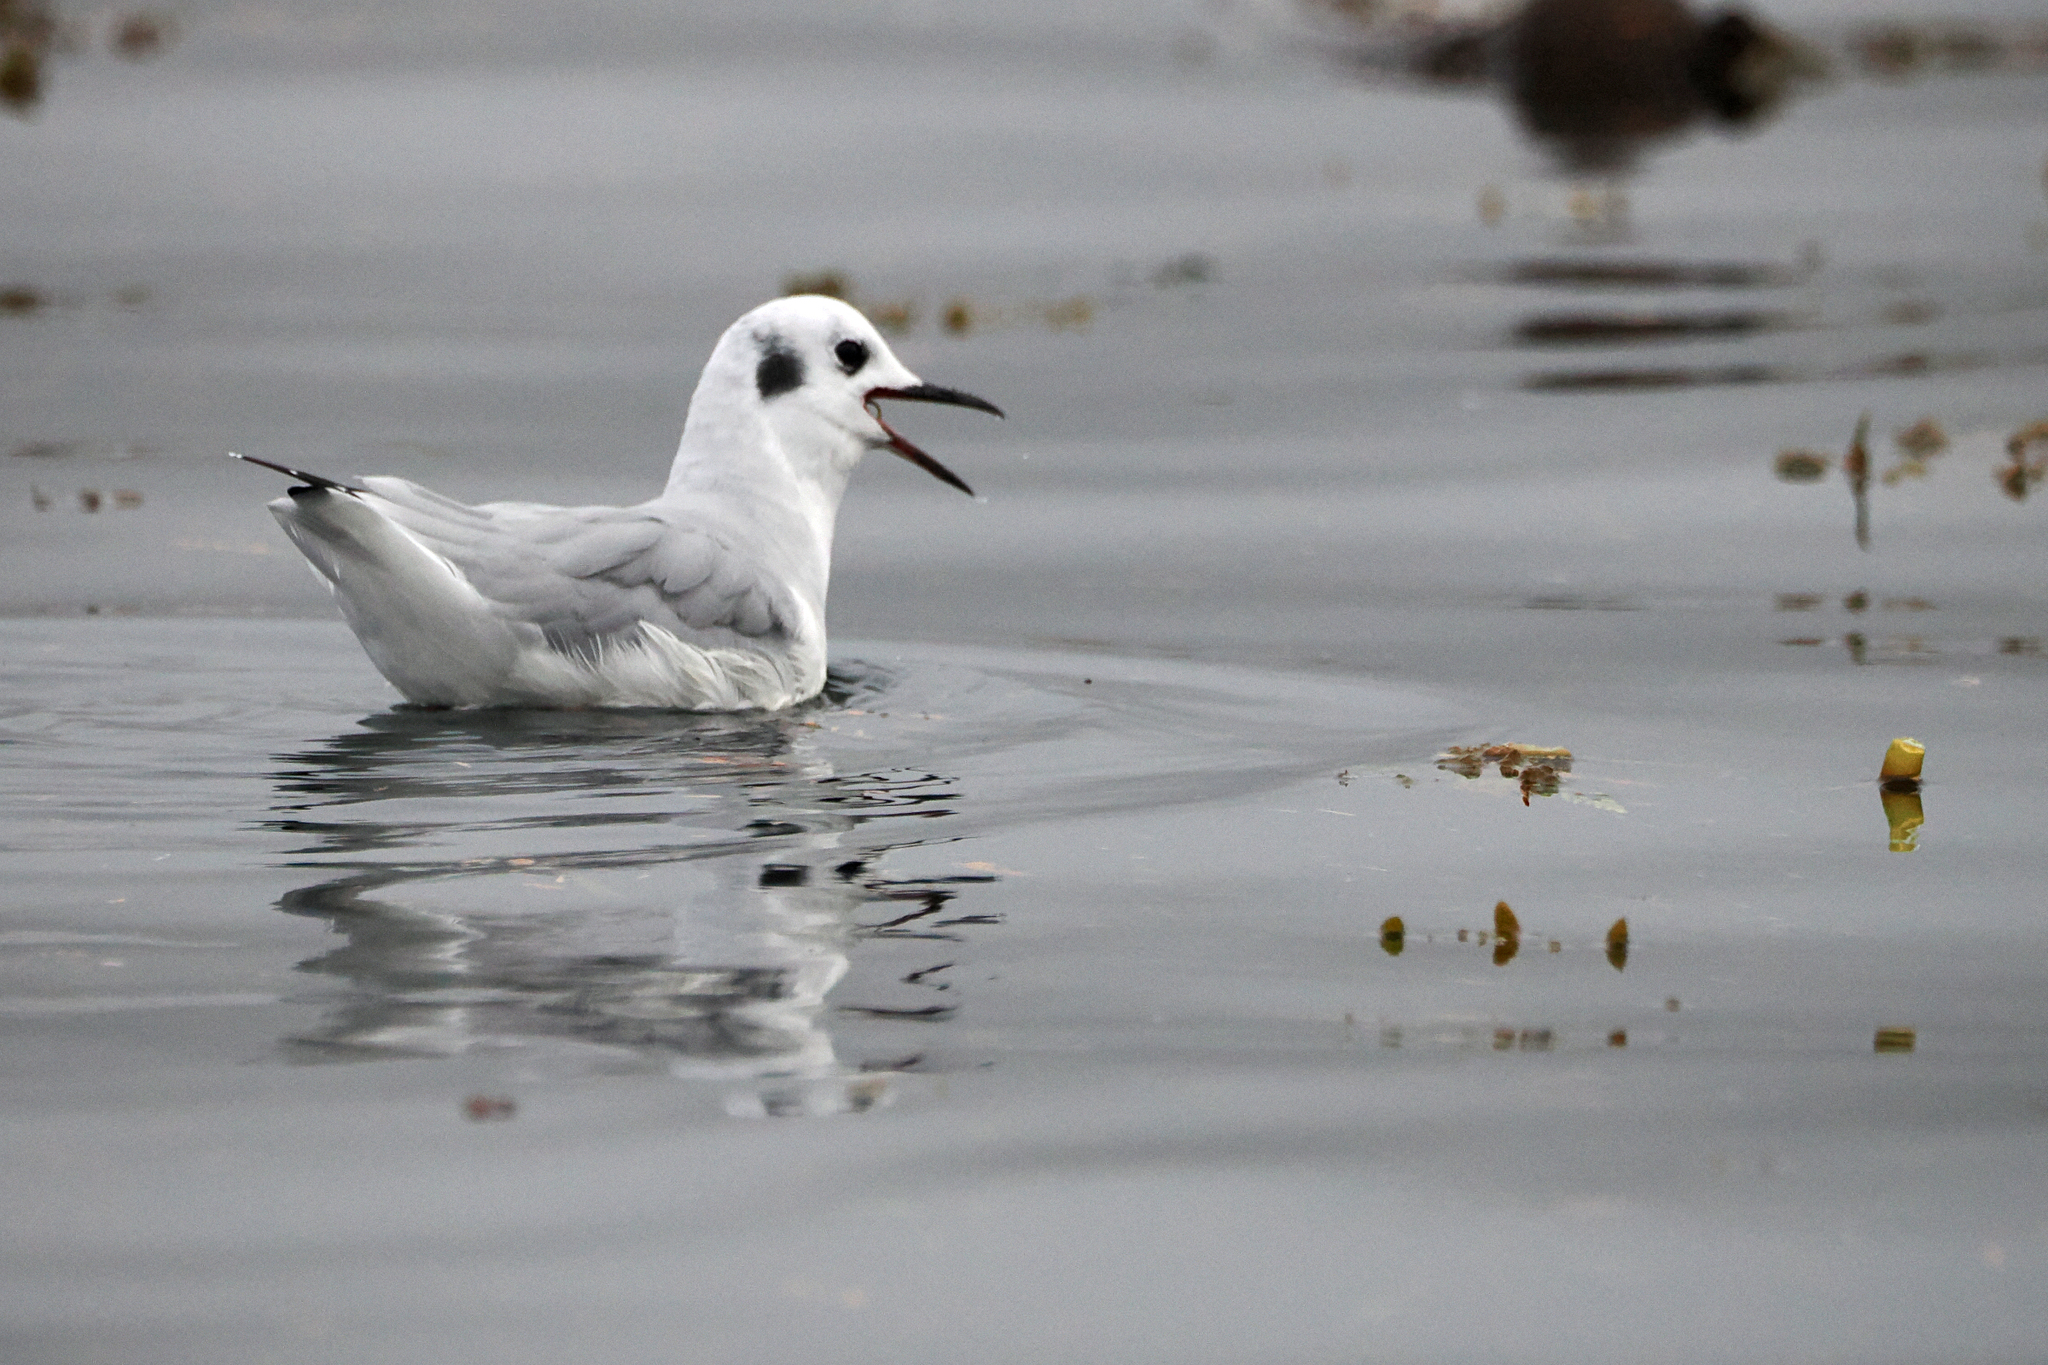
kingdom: Animalia
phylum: Chordata
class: Aves
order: Charadriiformes
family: Laridae
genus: Chroicocephalus
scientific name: Chroicocephalus philadelphia
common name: Bonaparte's gull
